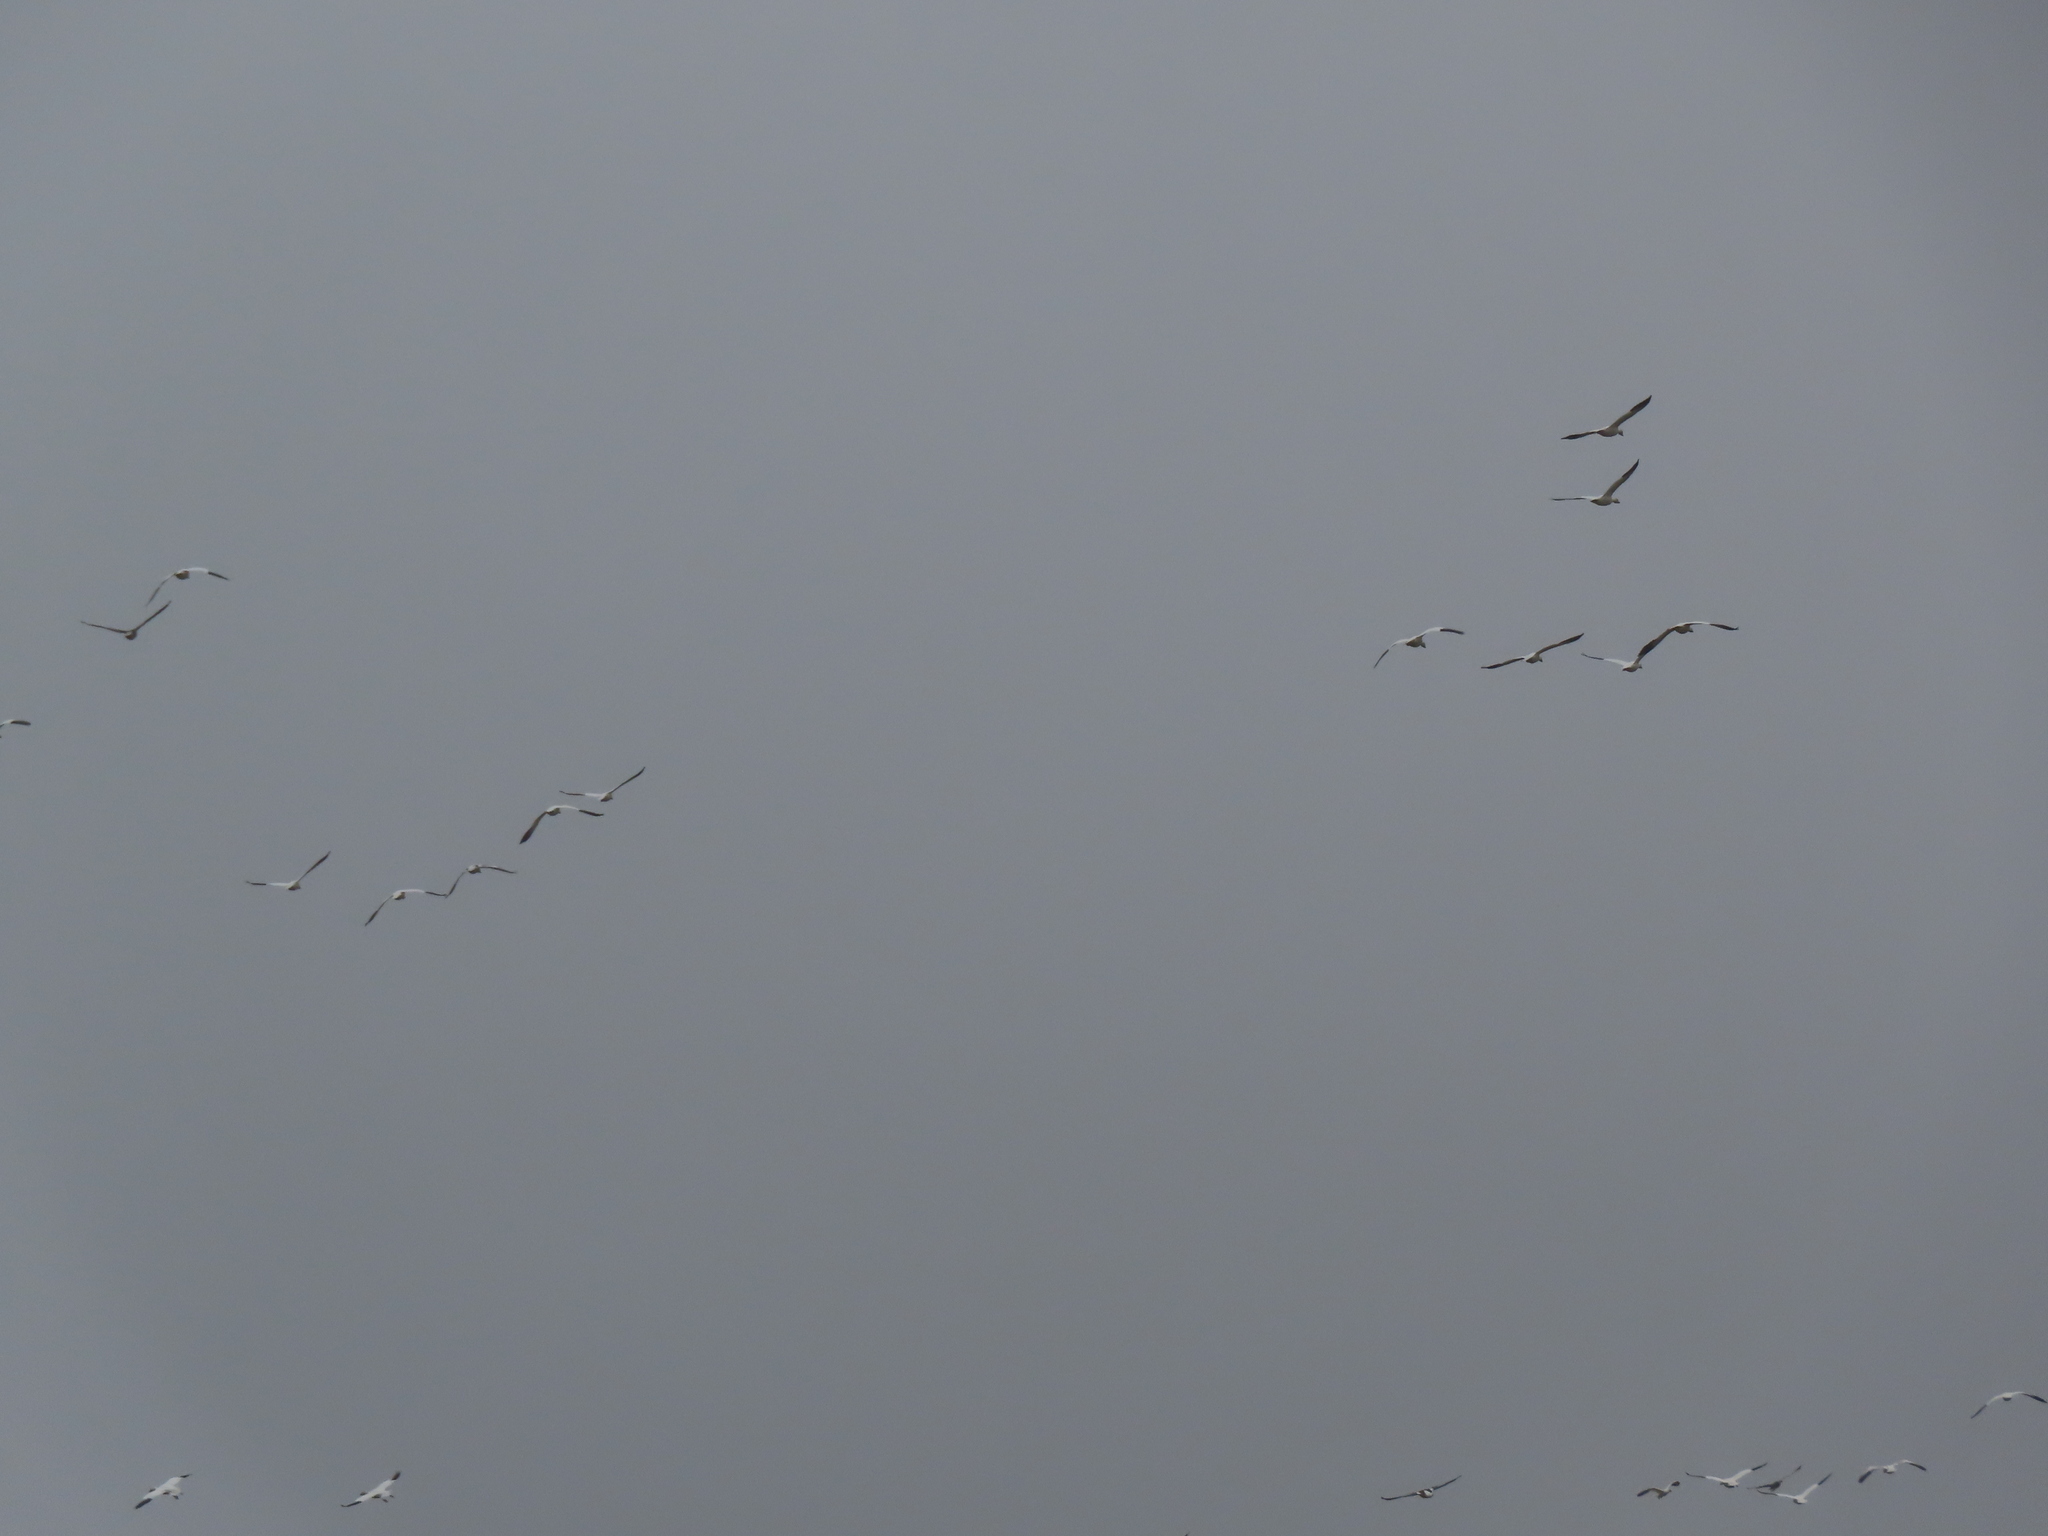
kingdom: Animalia
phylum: Chordata
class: Aves
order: Anseriformes
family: Anatidae
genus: Anser
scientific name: Anser caerulescens
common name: Snow goose
